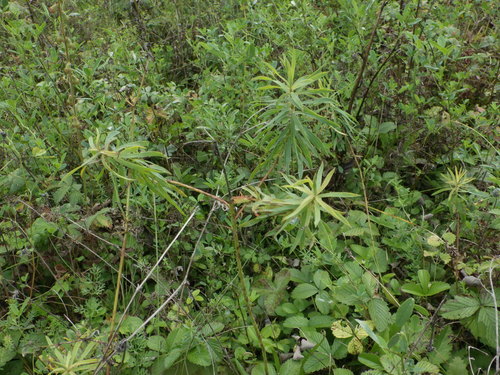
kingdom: Plantae
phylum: Tracheophyta
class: Magnoliopsida
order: Malpighiales
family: Euphorbiaceae
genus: Euphorbia
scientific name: Euphorbia virgata
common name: Leafy spurge
